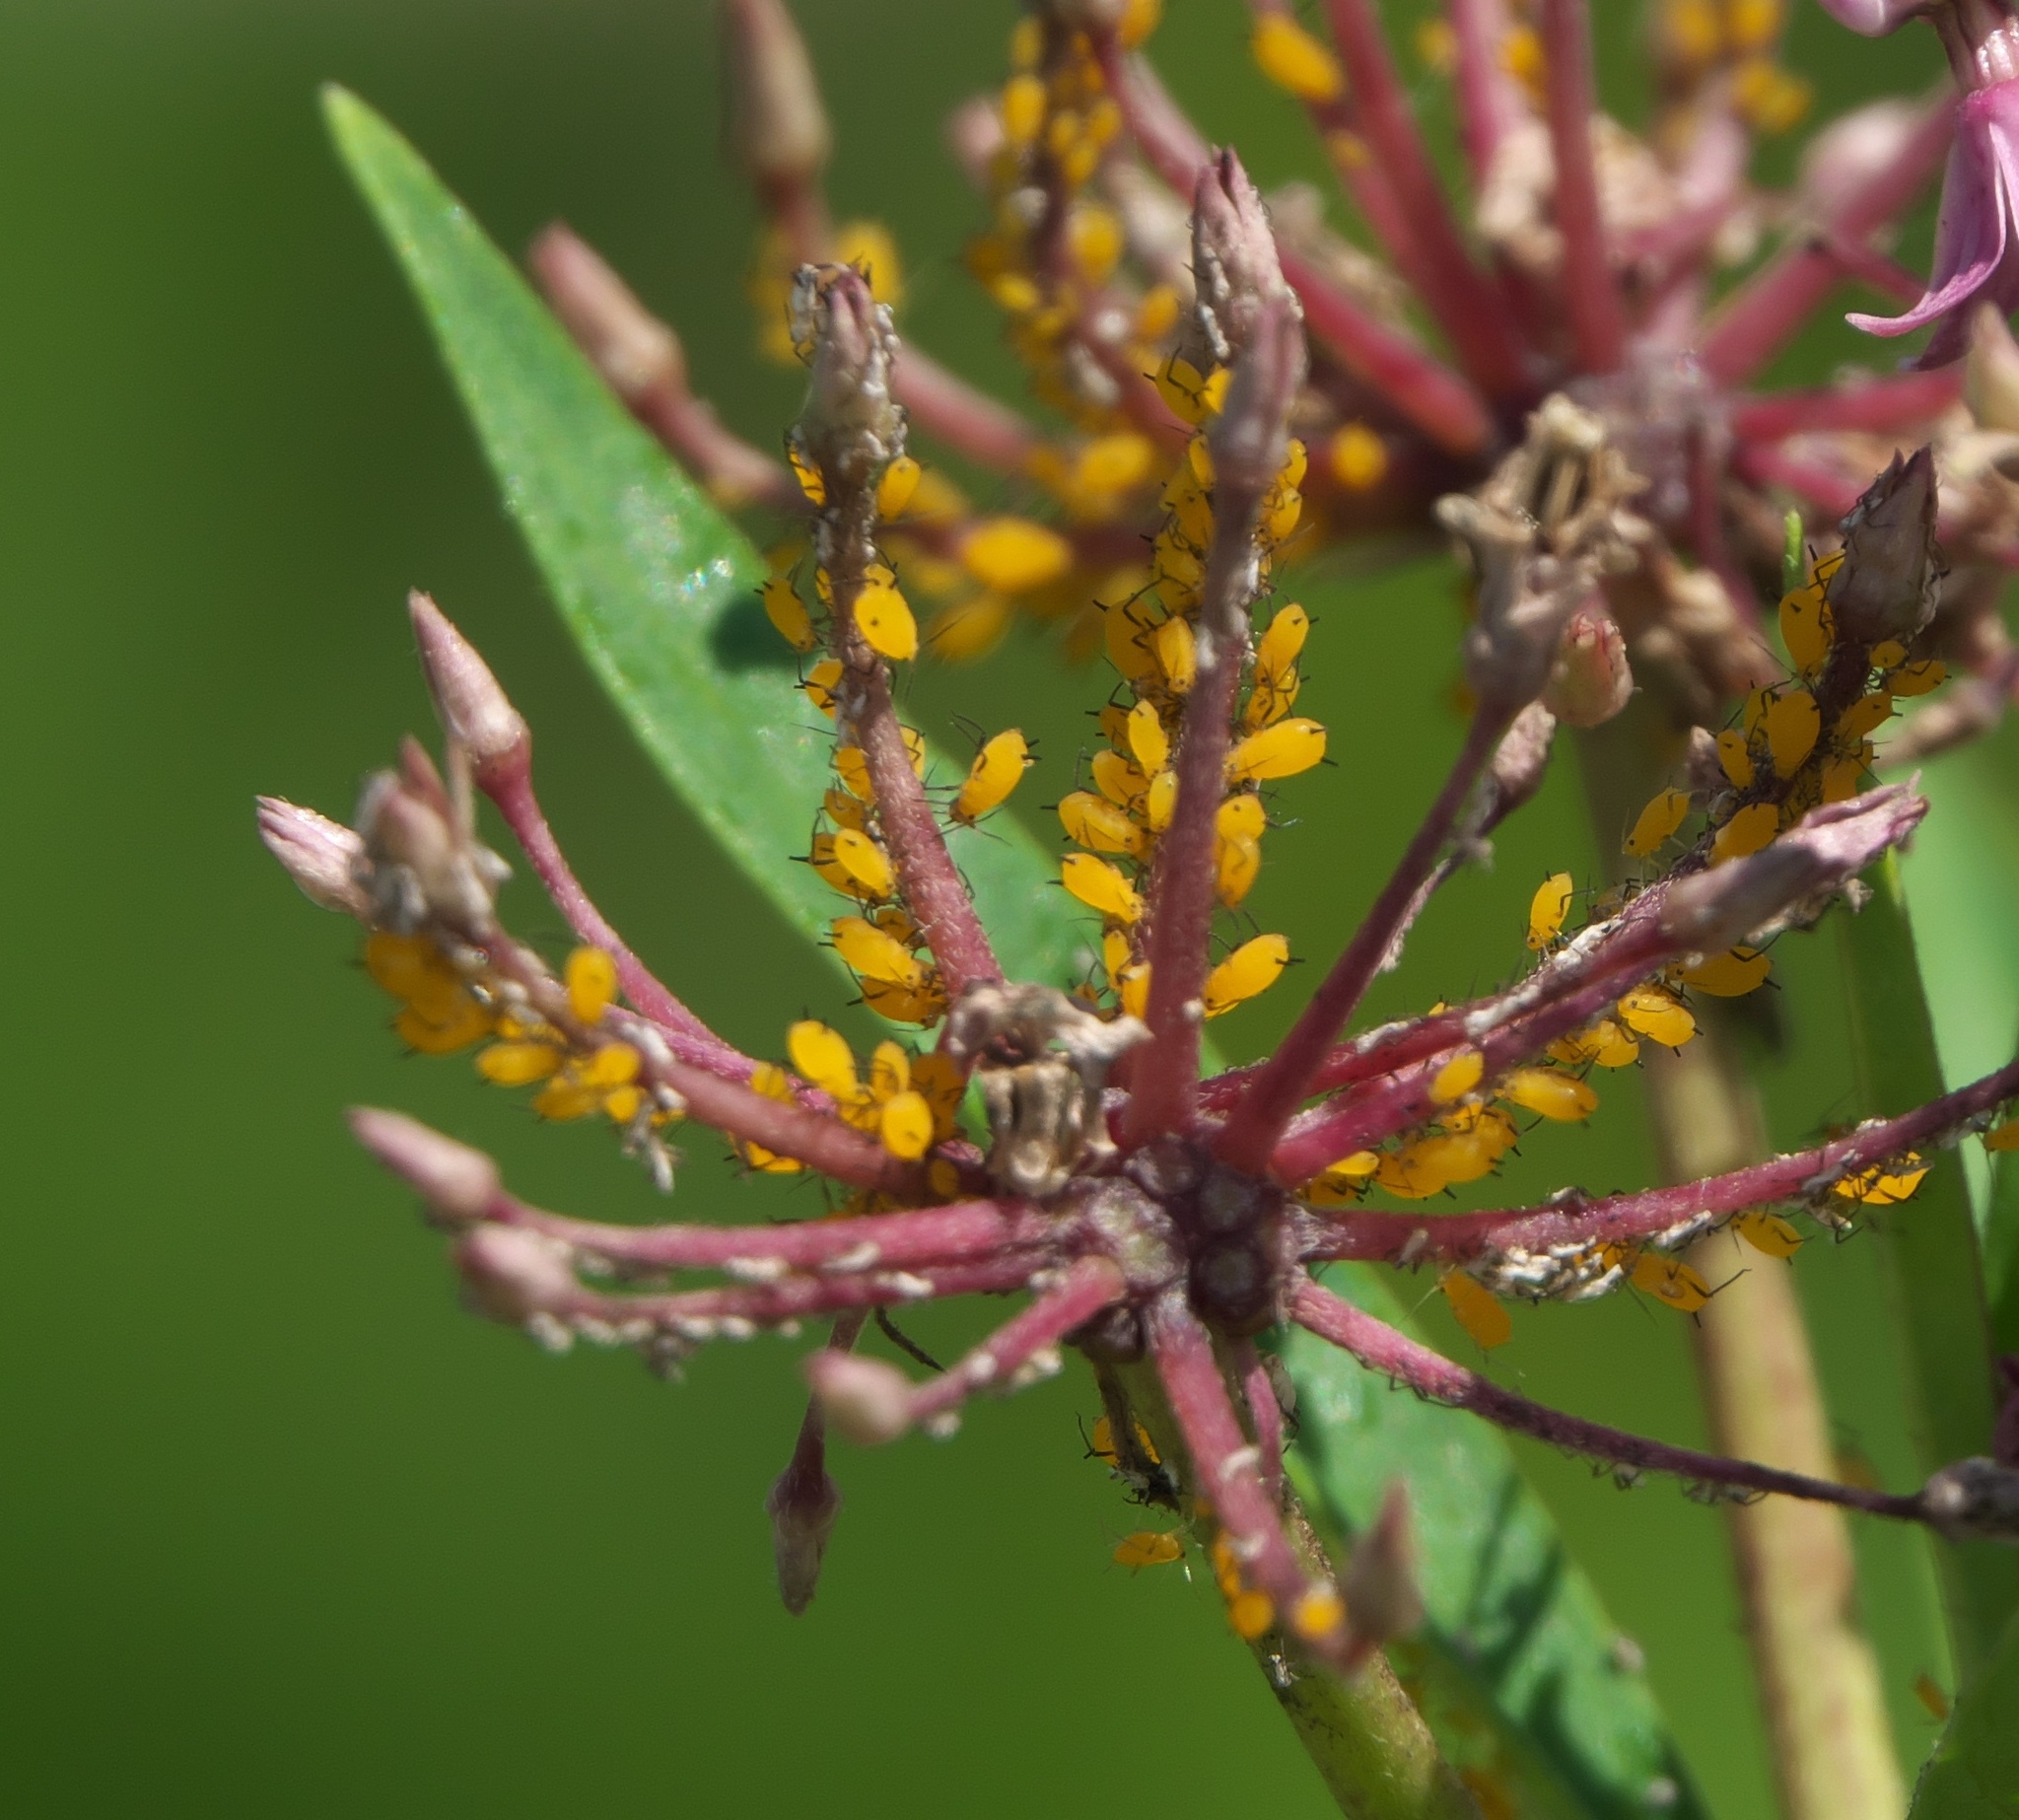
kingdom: Animalia
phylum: Arthropoda
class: Insecta
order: Hemiptera
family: Aphididae
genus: Aphis
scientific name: Aphis nerii
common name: Oleander aphid
